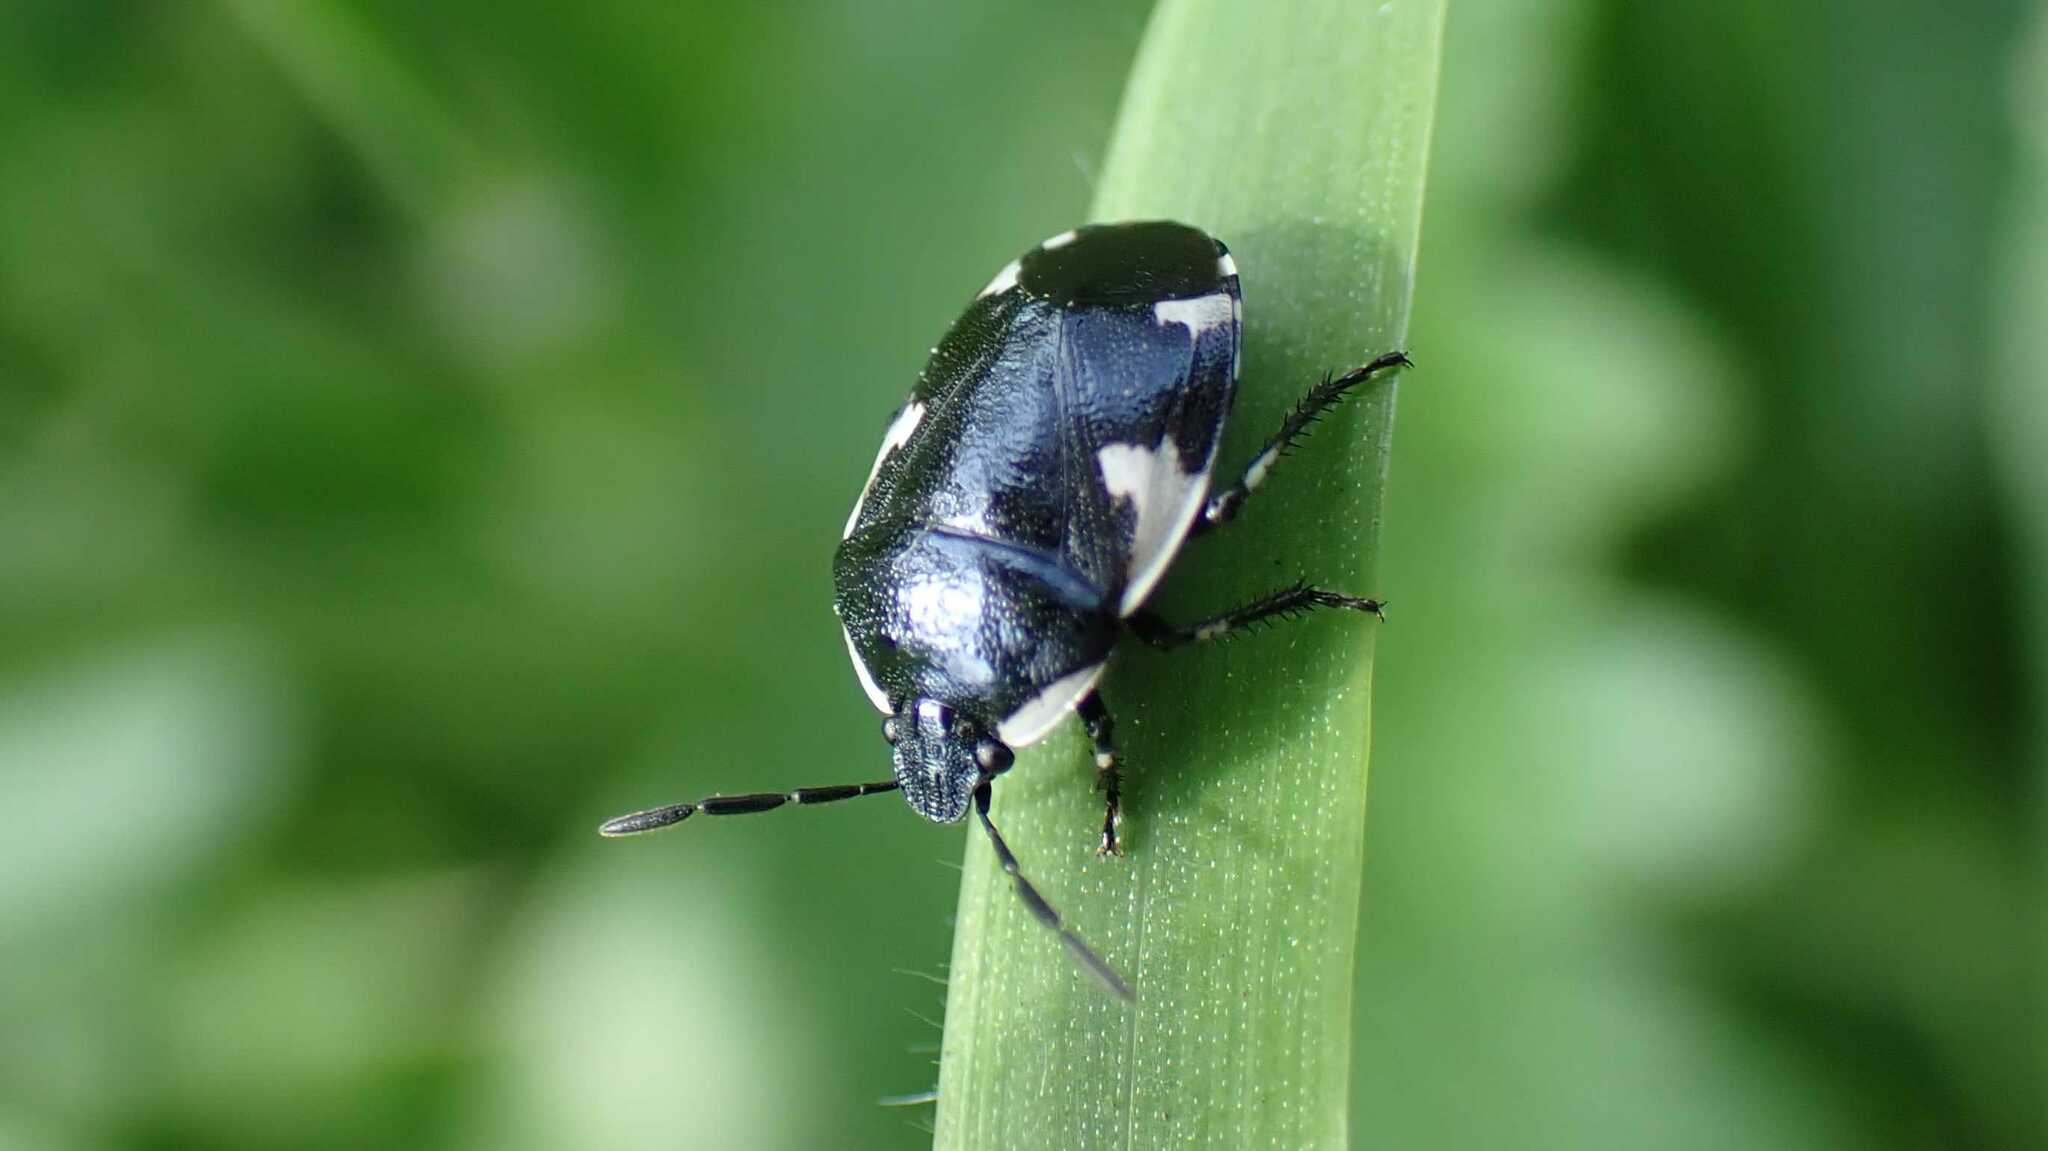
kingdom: Animalia
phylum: Arthropoda
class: Insecta
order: Hemiptera
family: Cydnidae
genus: Tritomegas
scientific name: Tritomegas sexmaculatus
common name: Rambur's pied shieldbug
